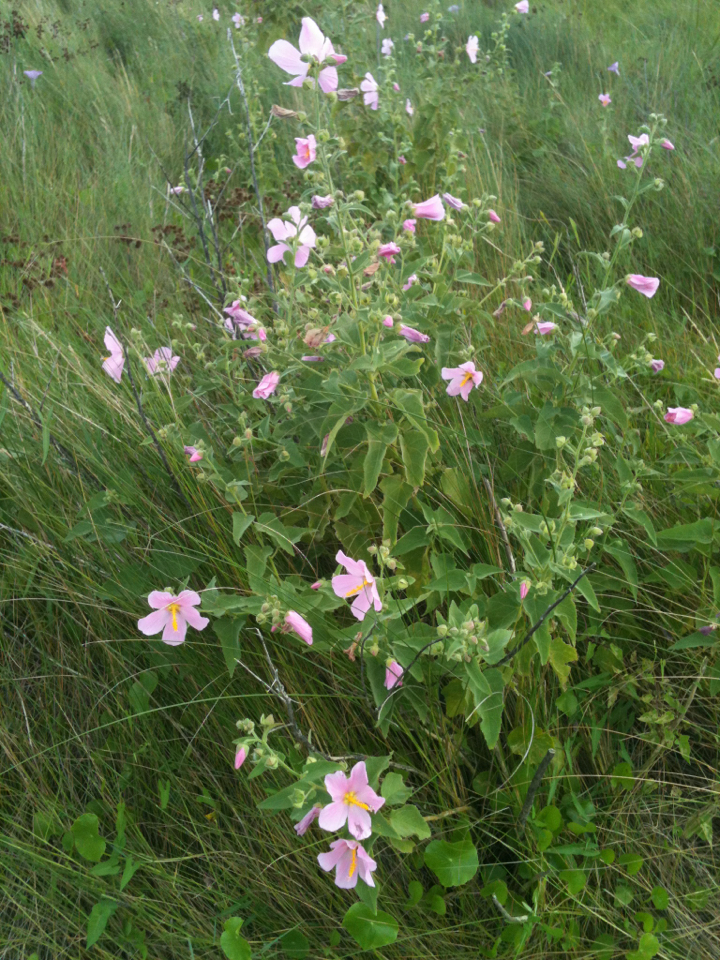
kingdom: Plantae
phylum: Tracheophyta
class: Magnoliopsida
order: Malvales
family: Malvaceae
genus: Kosteletzkya
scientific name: Kosteletzkya pentacarpos
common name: Virginia saltmarsh mallow
